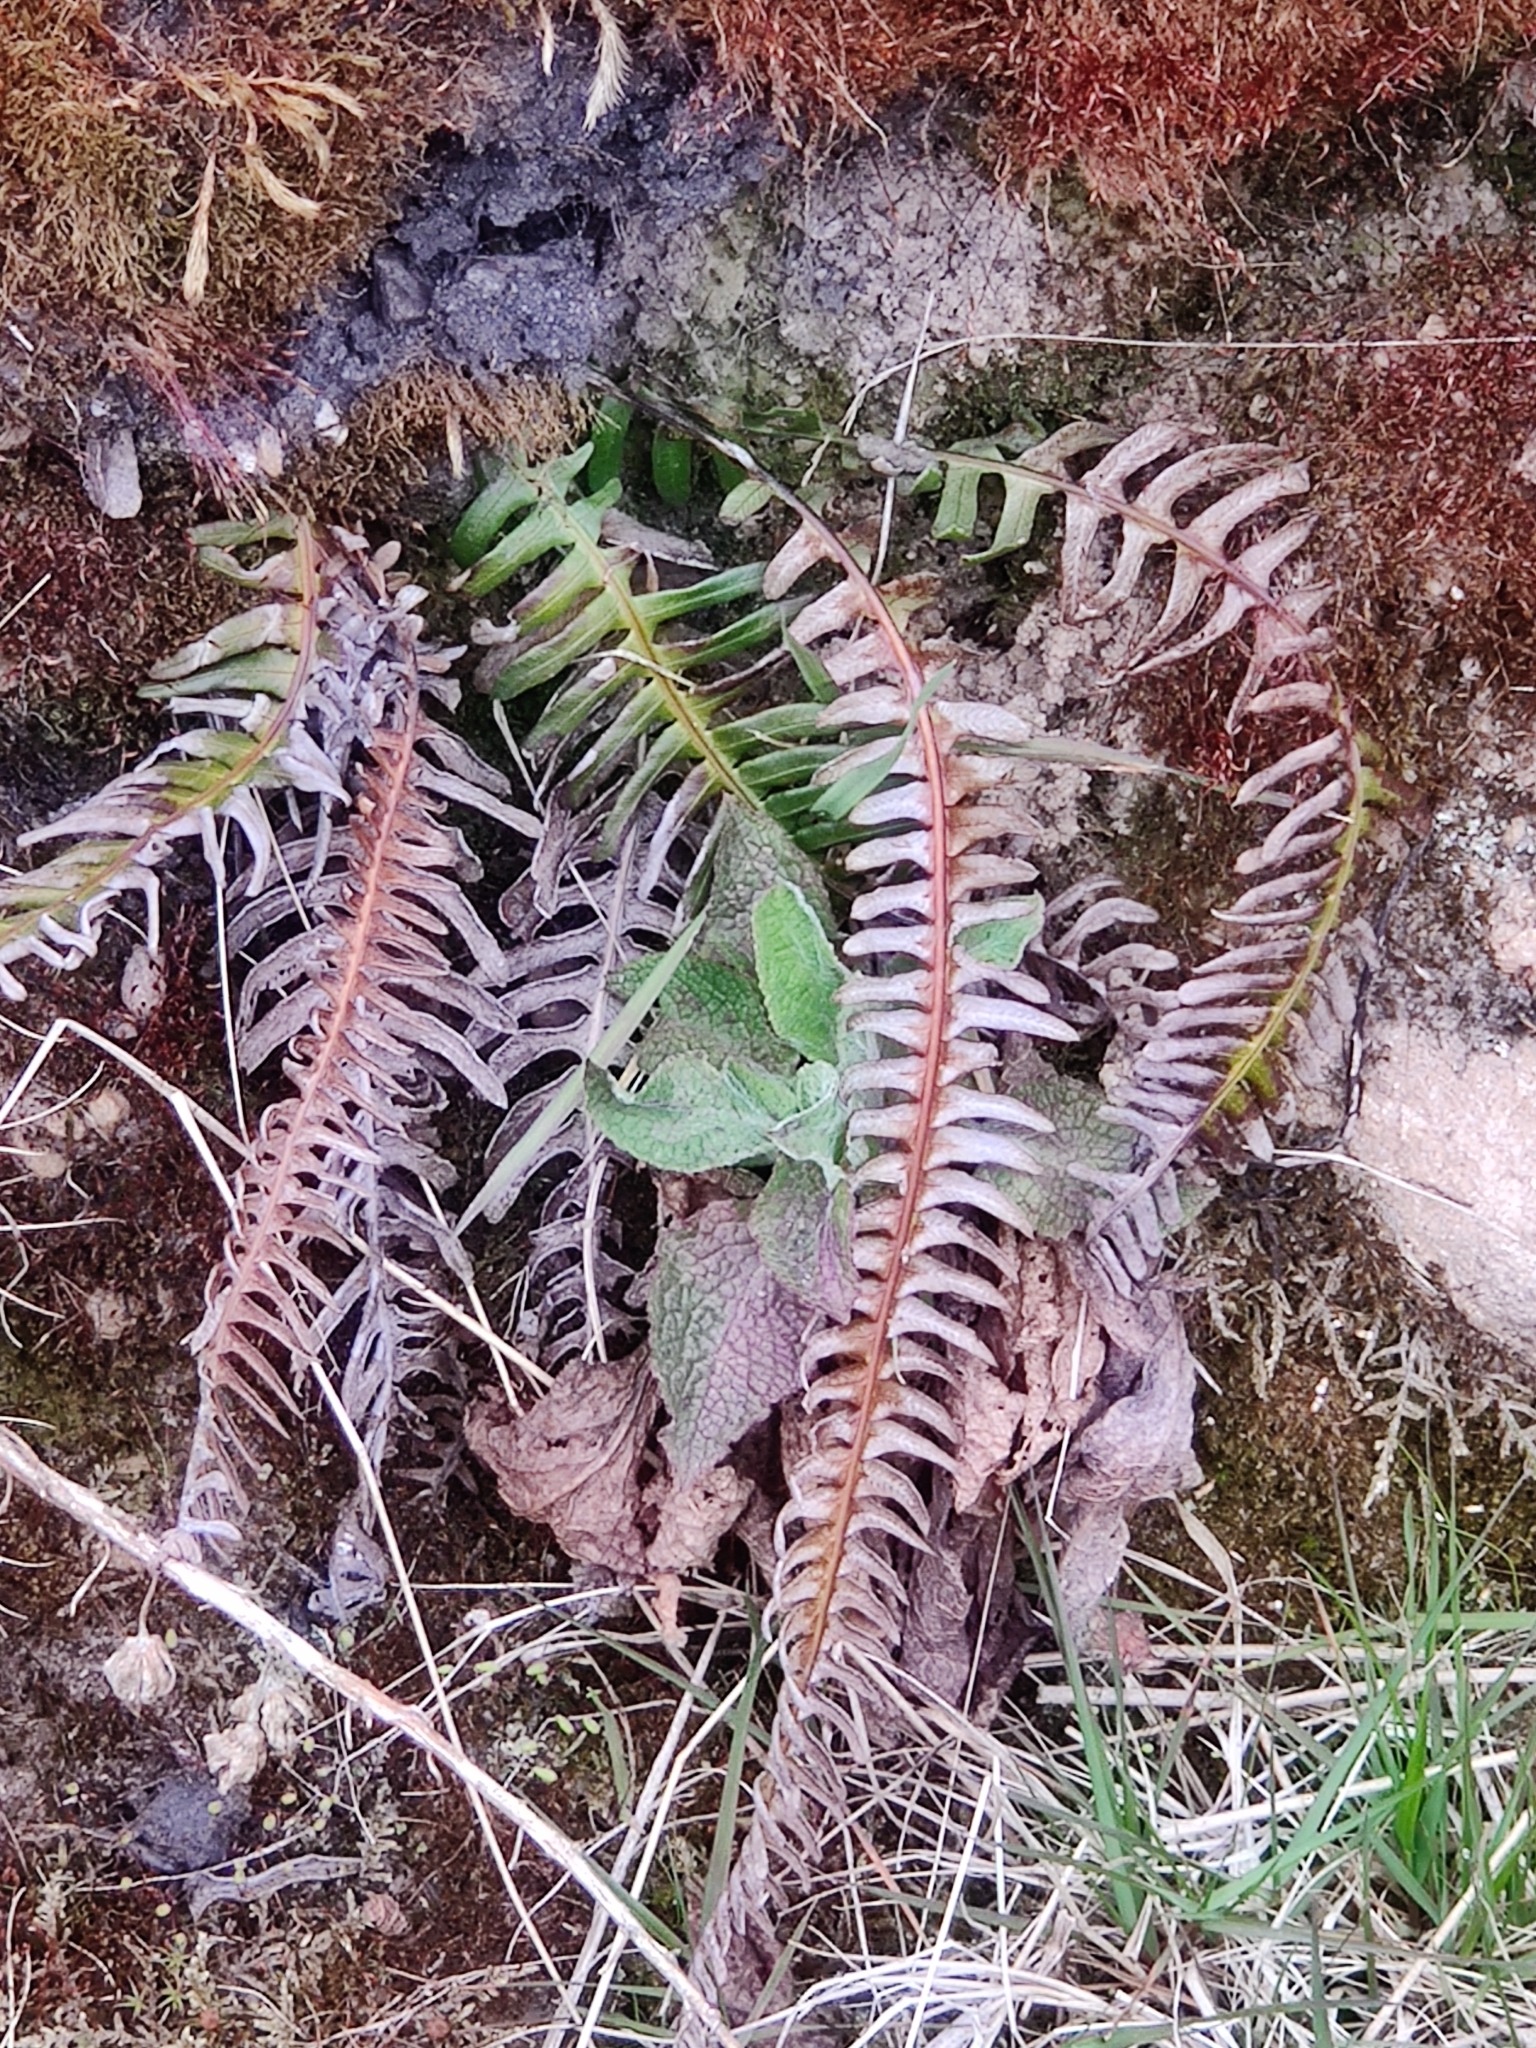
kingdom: Plantae
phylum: Tracheophyta
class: Polypodiopsida
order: Polypodiales
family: Blechnaceae
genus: Struthiopteris
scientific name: Struthiopteris spicant
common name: Deer fern
